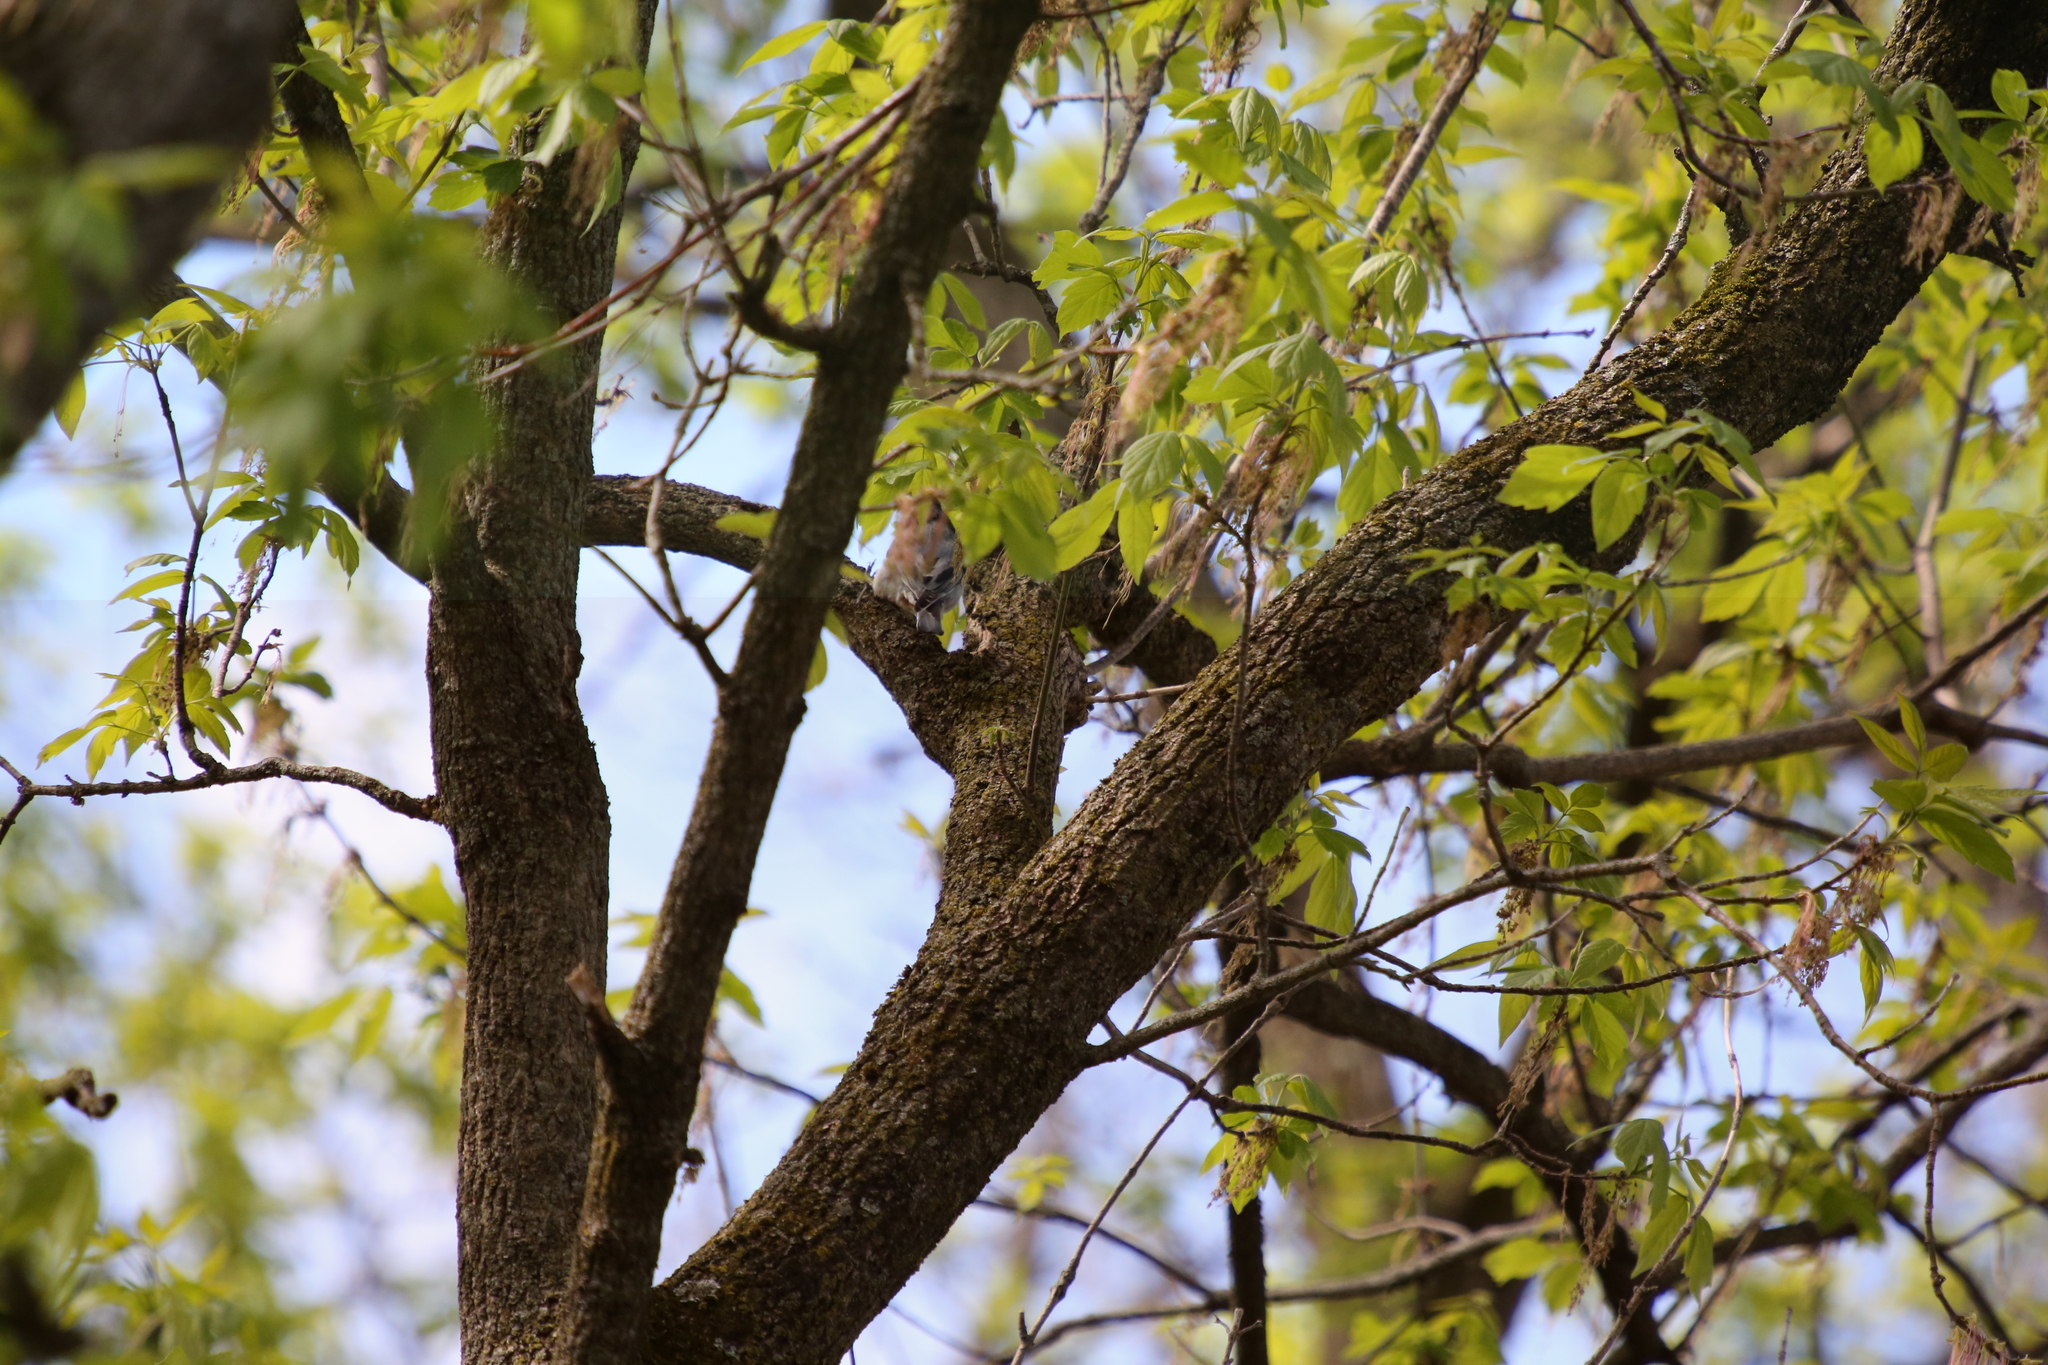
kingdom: Animalia
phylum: Chordata
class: Aves
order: Passeriformes
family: Sittidae
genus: Sitta
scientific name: Sitta carolinensis
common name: White-breasted nuthatch
